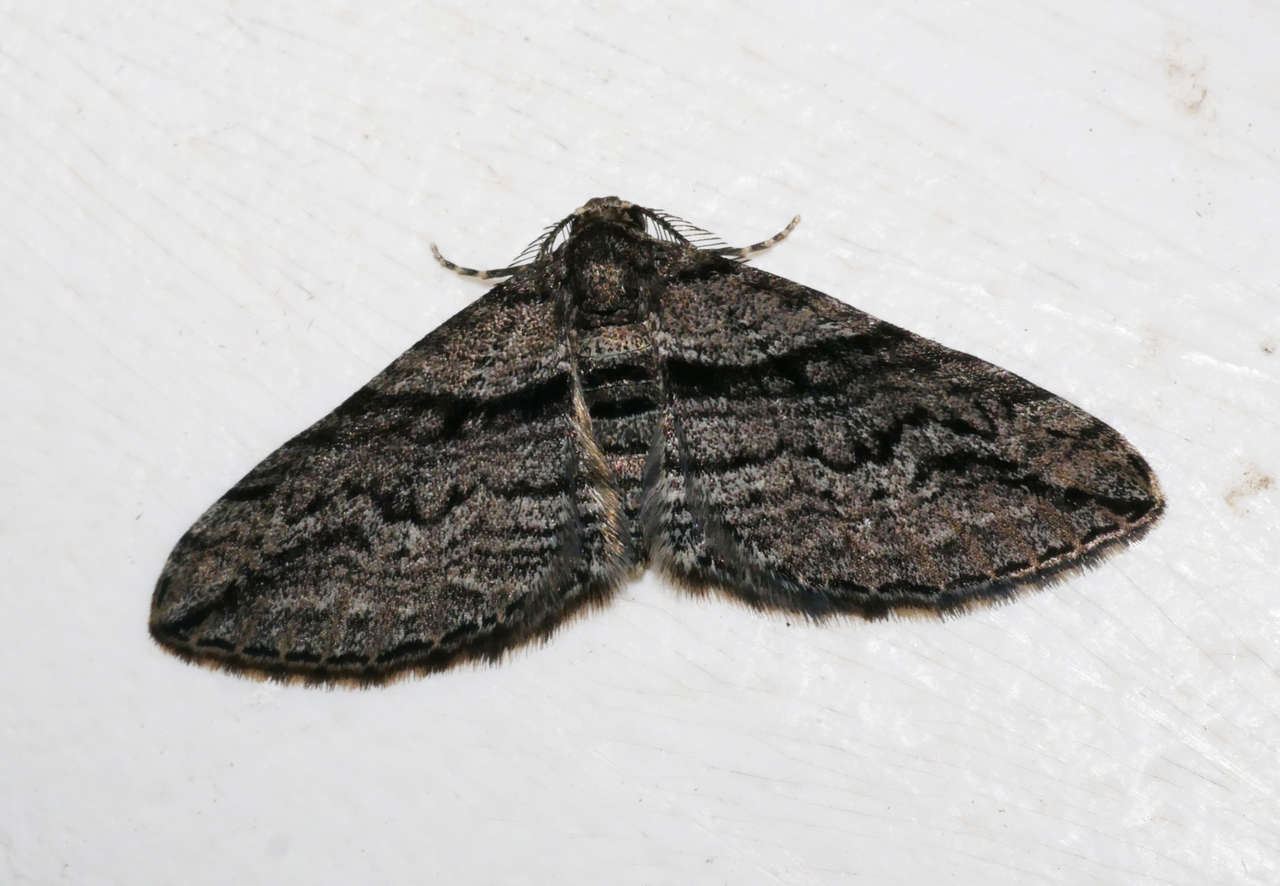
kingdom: Animalia
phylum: Arthropoda
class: Insecta
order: Lepidoptera
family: Geometridae
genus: Hypycnopa
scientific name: Hypycnopa delotis
